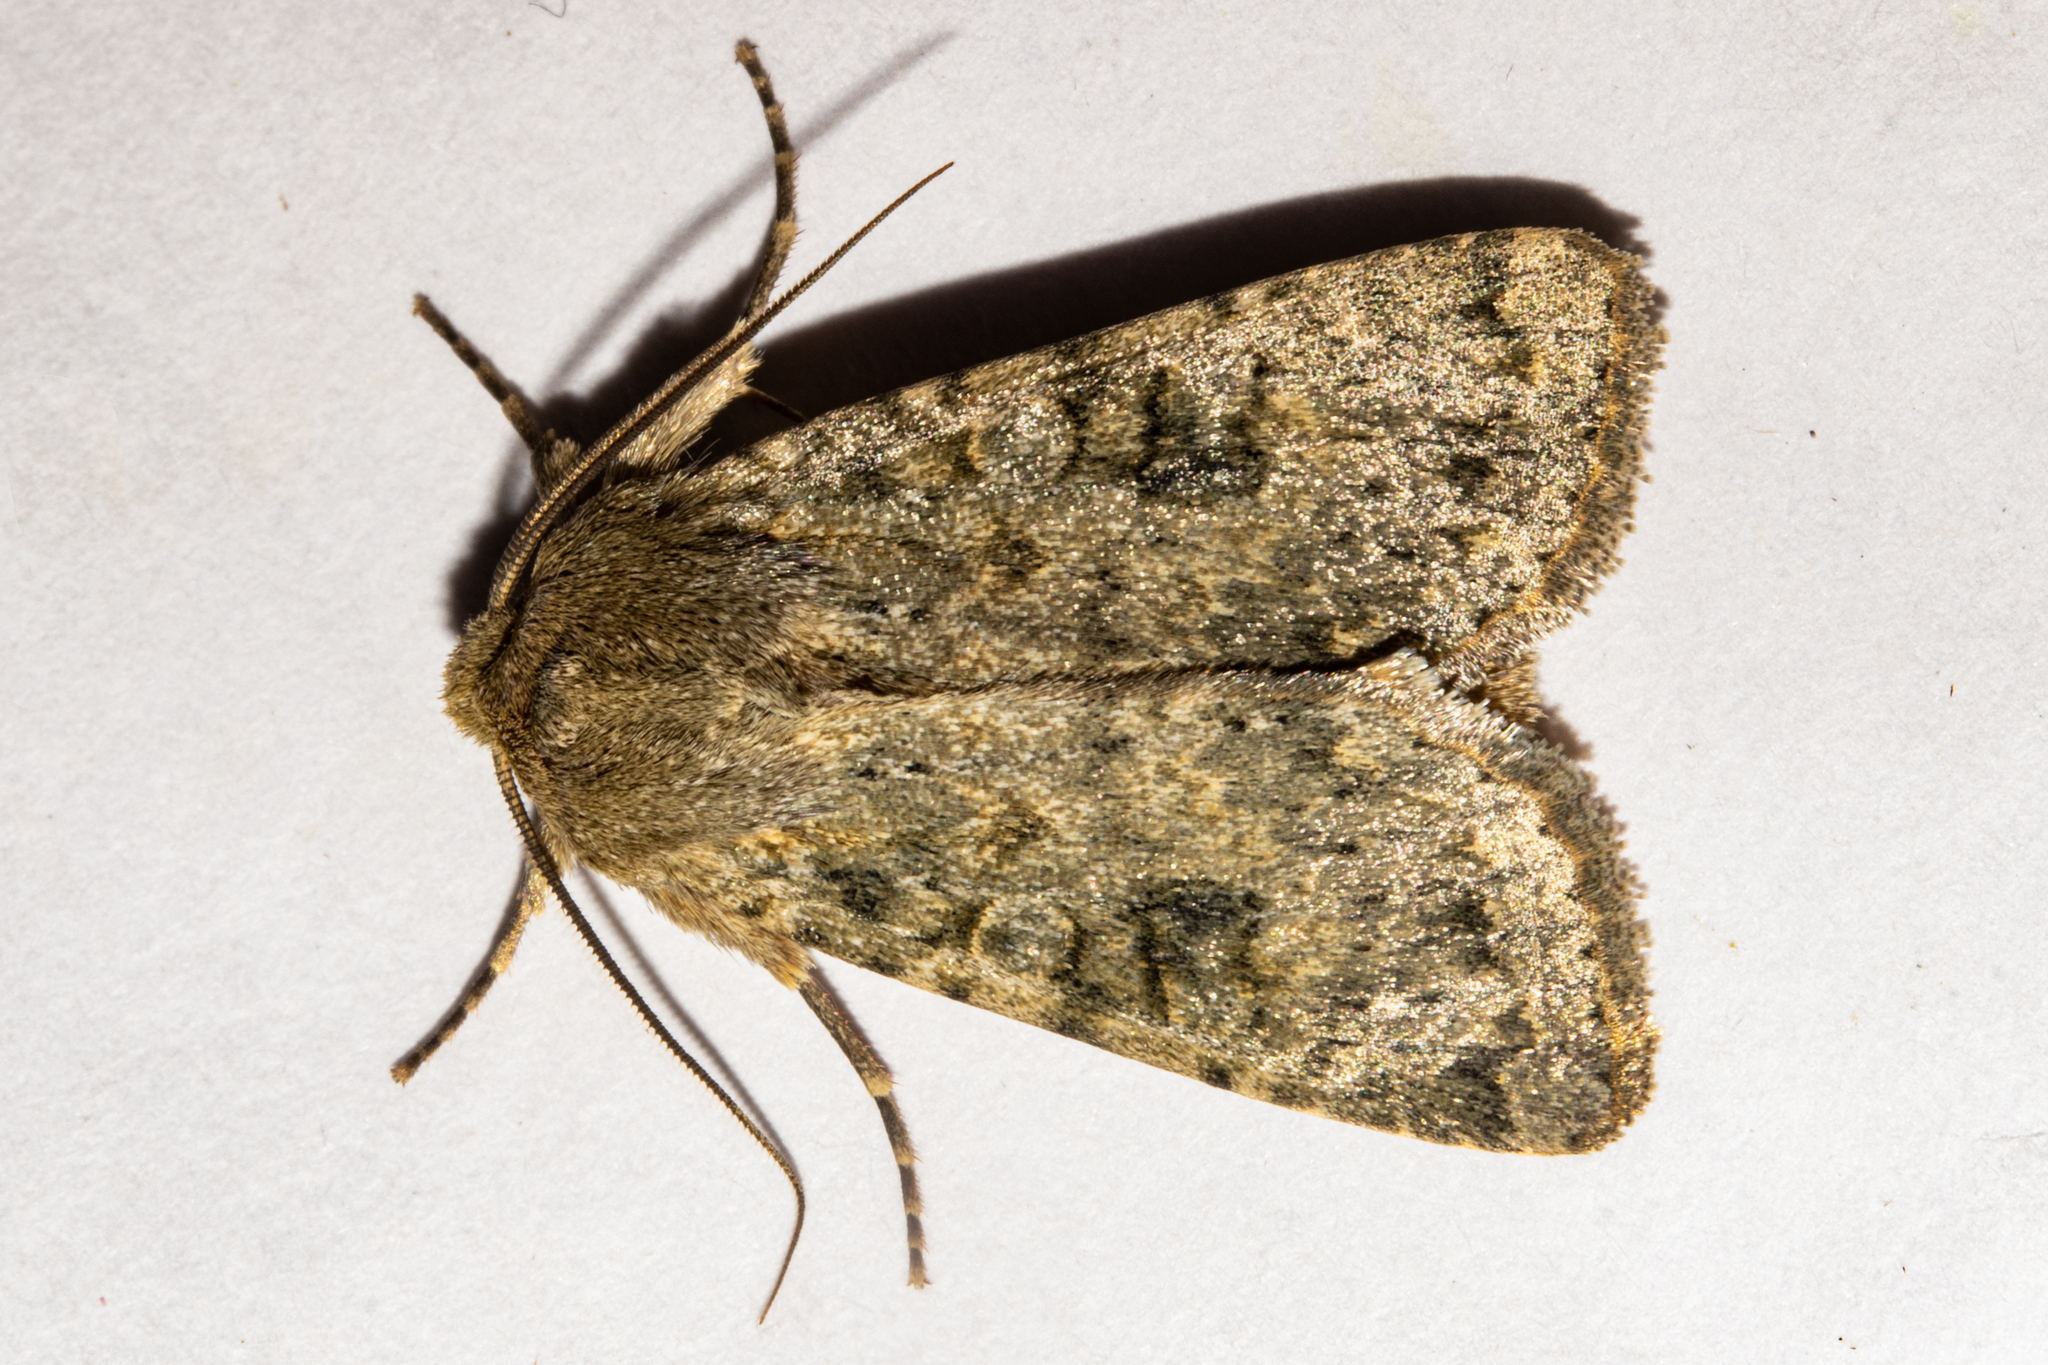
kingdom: Animalia
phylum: Arthropoda
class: Insecta
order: Lepidoptera
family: Noctuidae
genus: Ichneutica
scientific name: Ichneutica
